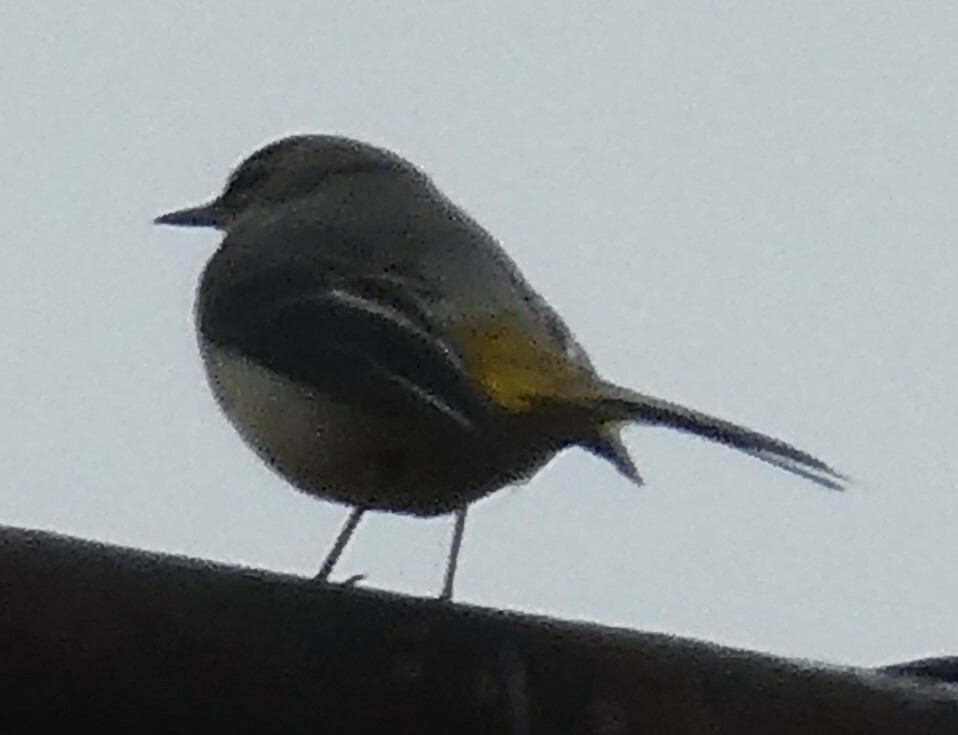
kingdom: Animalia
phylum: Chordata
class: Aves
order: Passeriformes
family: Motacillidae
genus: Motacilla
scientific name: Motacilla cinerea
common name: Grey wagtail
